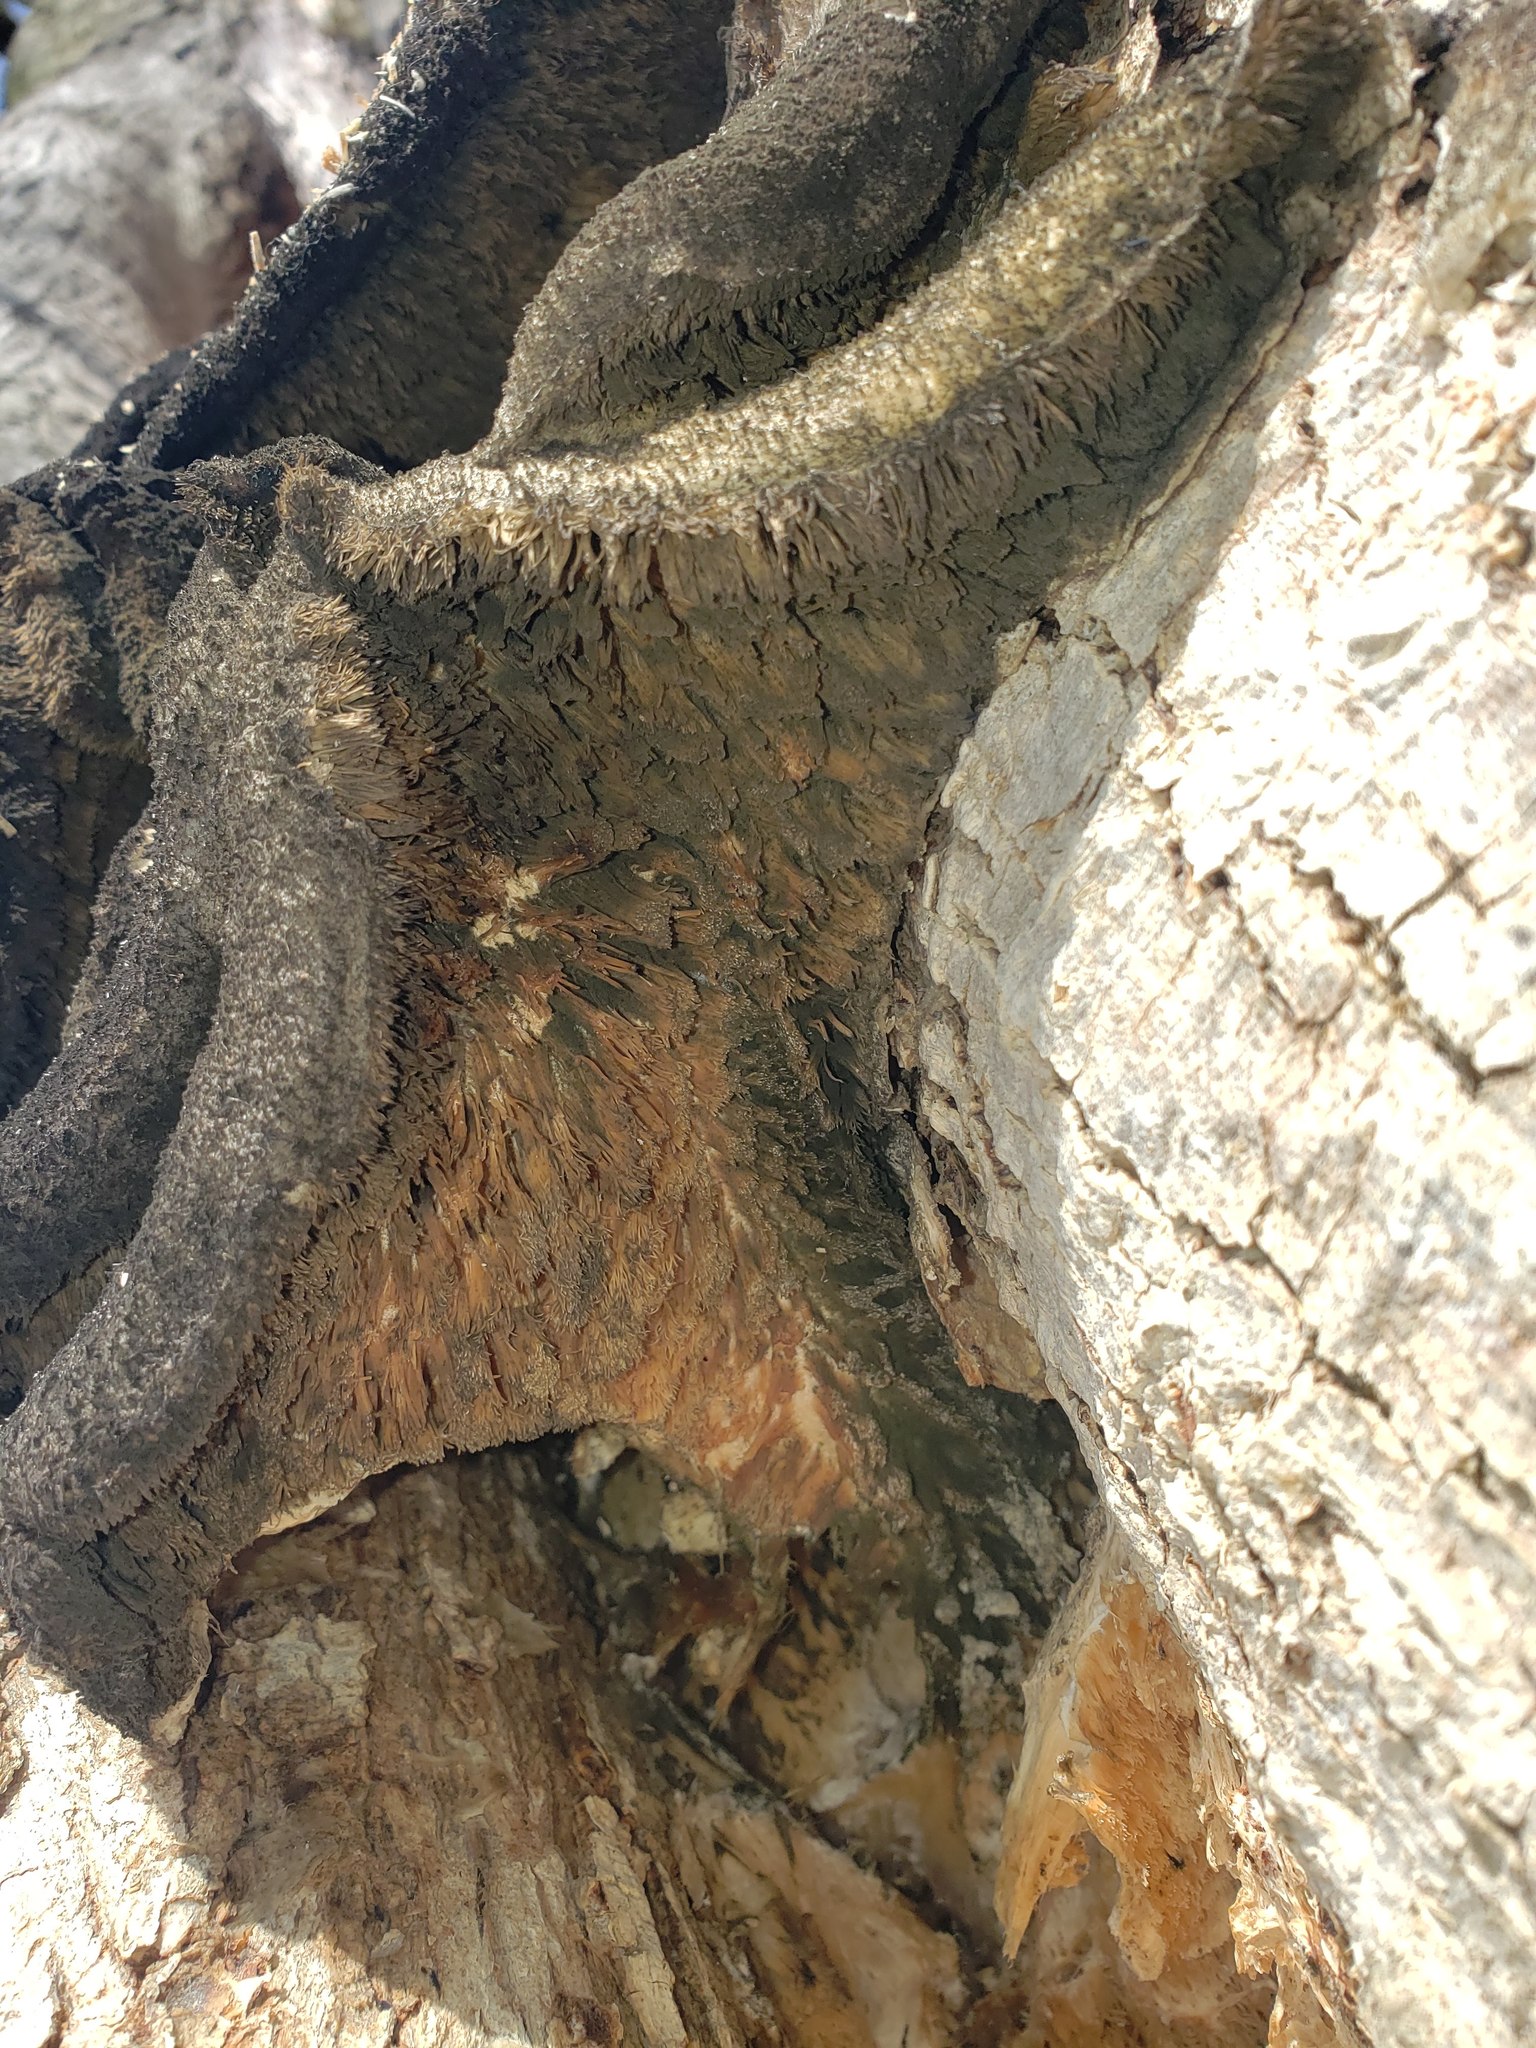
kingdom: Fungi
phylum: Basidiomycota
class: Agaricomycetes
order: Polyporales
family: Meruliaceae
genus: Climacodon
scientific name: Climacodon septentrionalis
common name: Northern tooth
